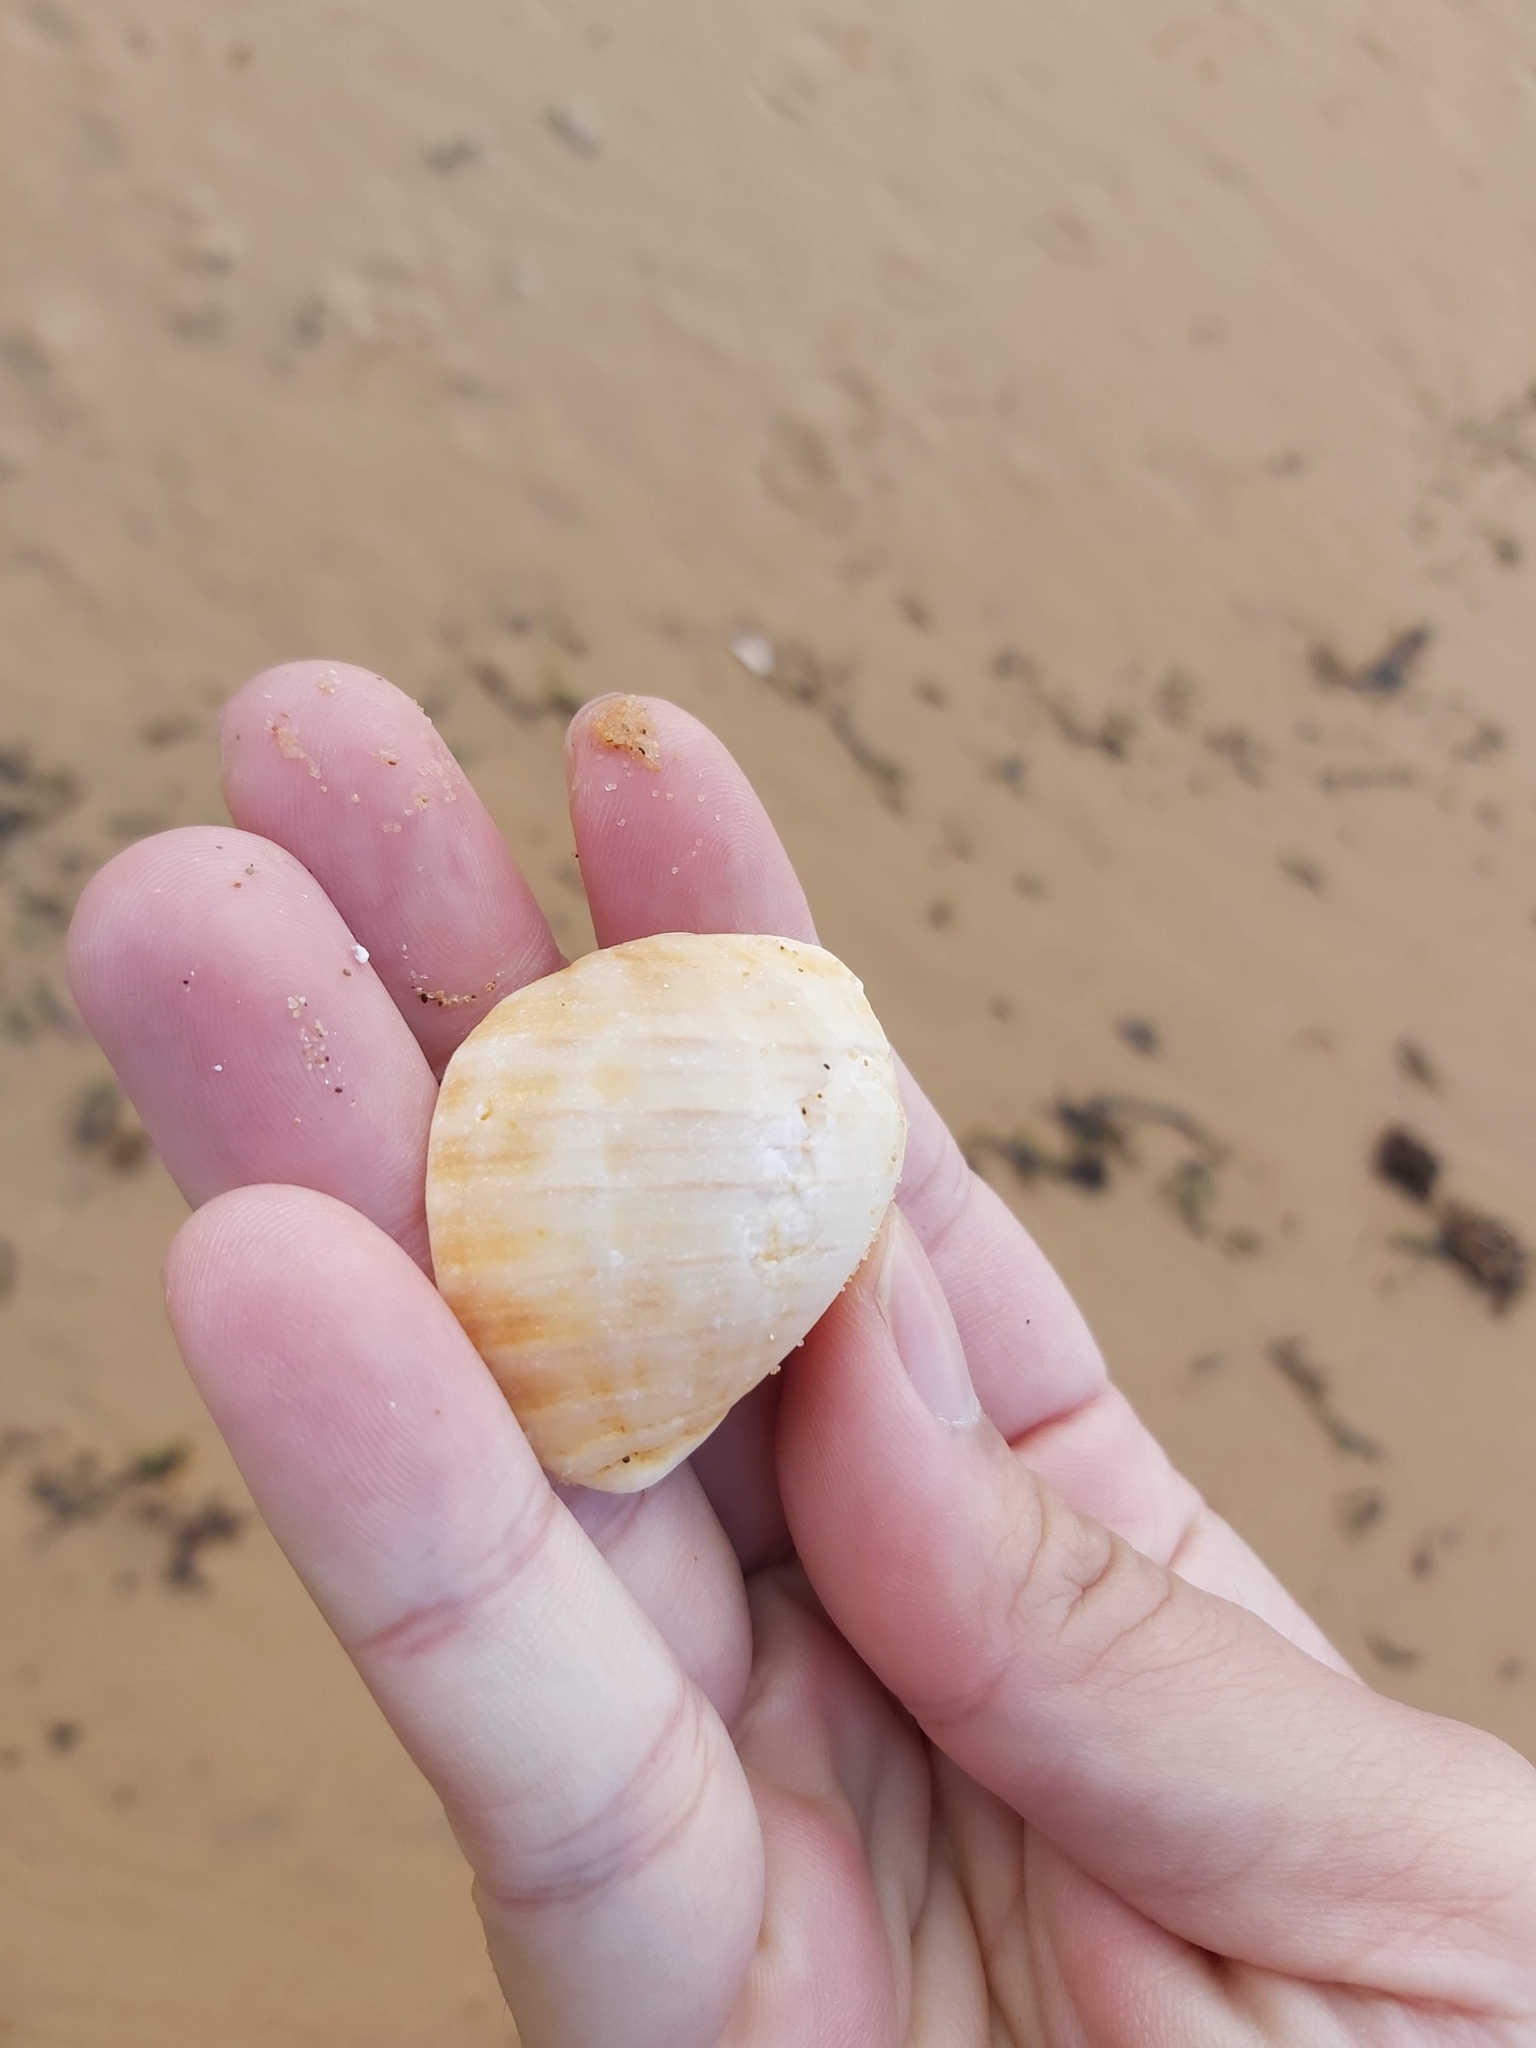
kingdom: Animalia
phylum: Mollusca
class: Gastropoda
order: Neogastropoda
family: Muricidae
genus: Dicathais
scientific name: Dicathais orbita
